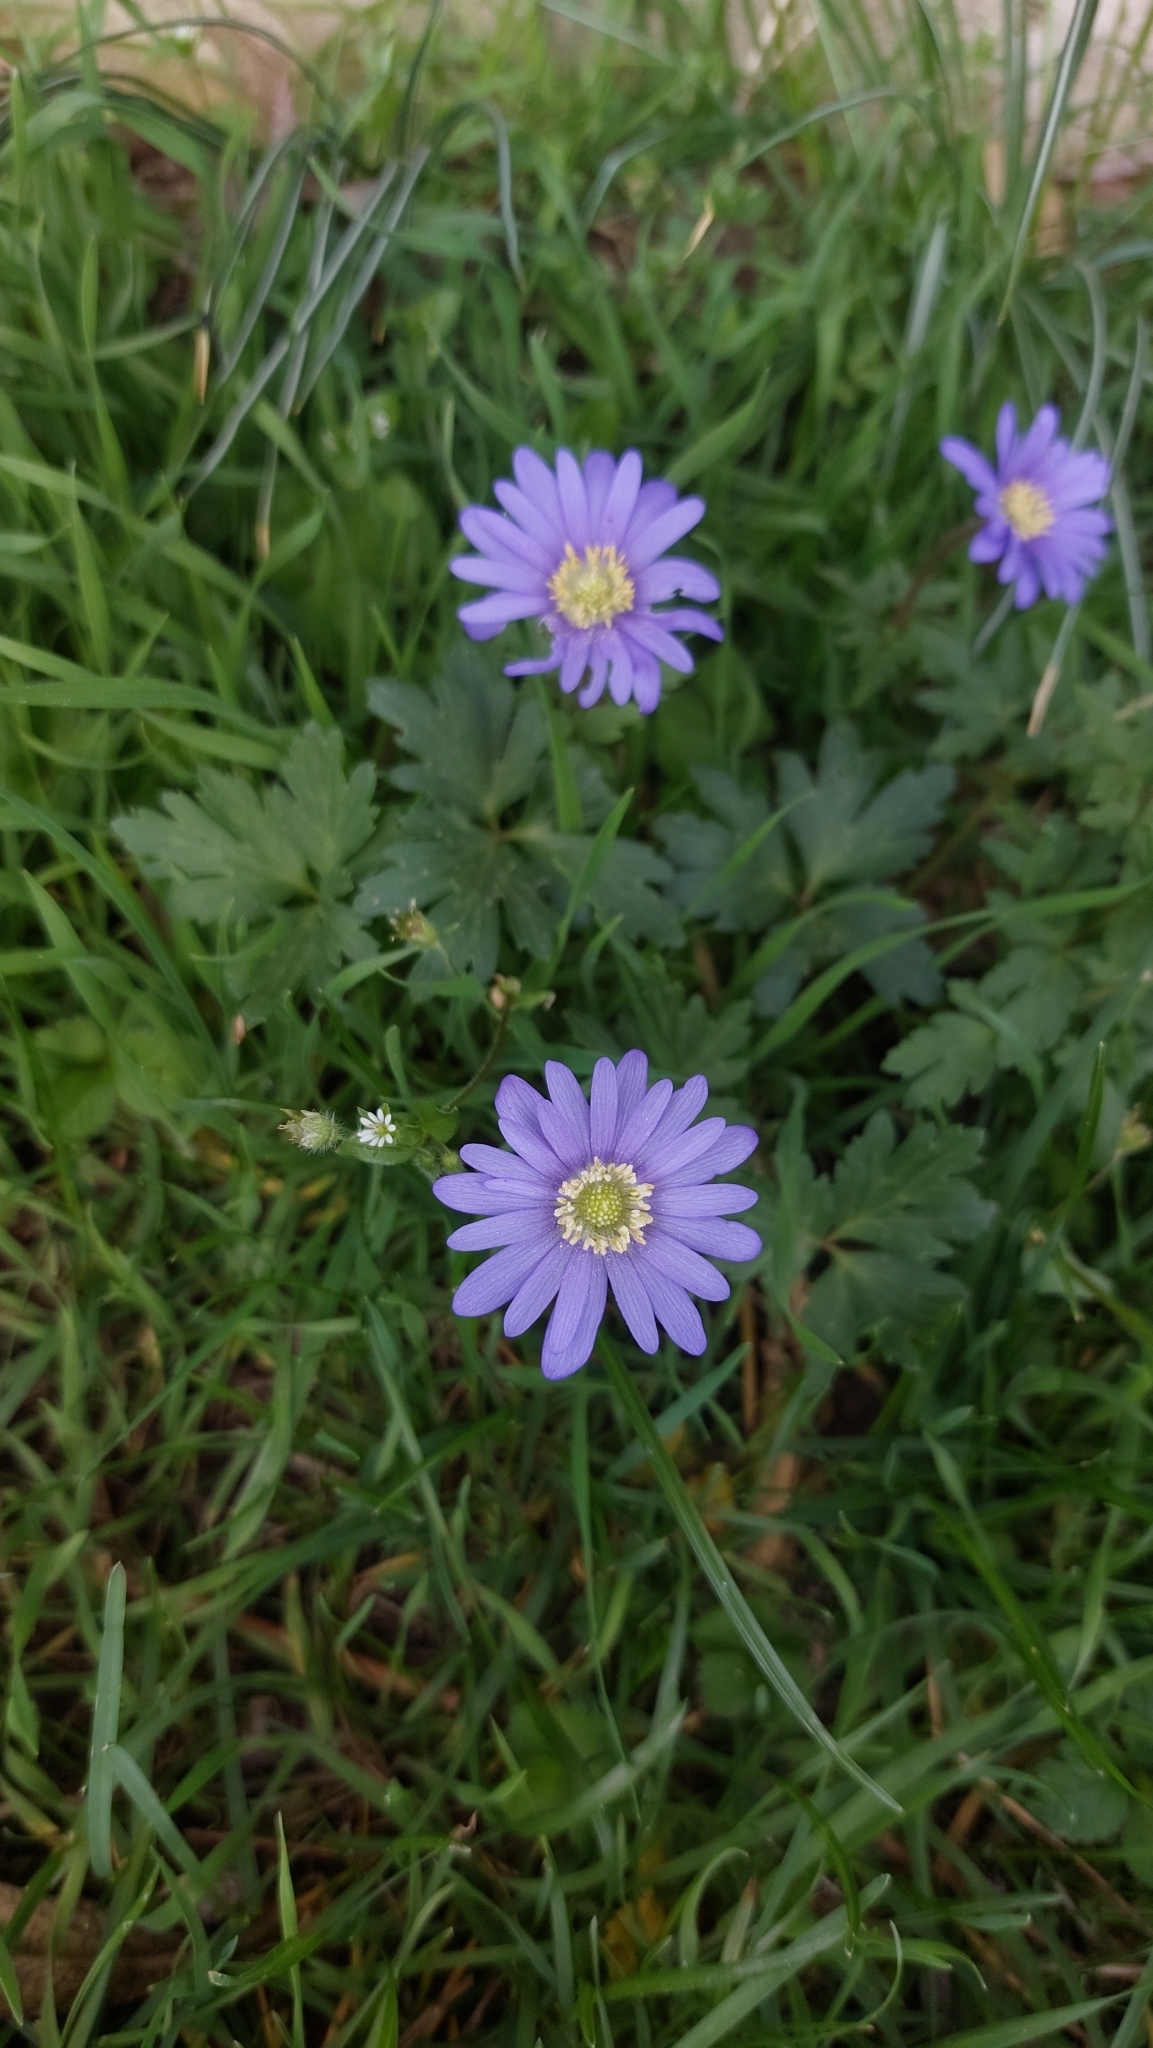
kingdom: Plantae
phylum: Tracheophyta
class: Magnoliopsida
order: Ranunculales
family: Ranunculaceae
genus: Anemone
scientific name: Anemone blanda
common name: Balkan anemone
